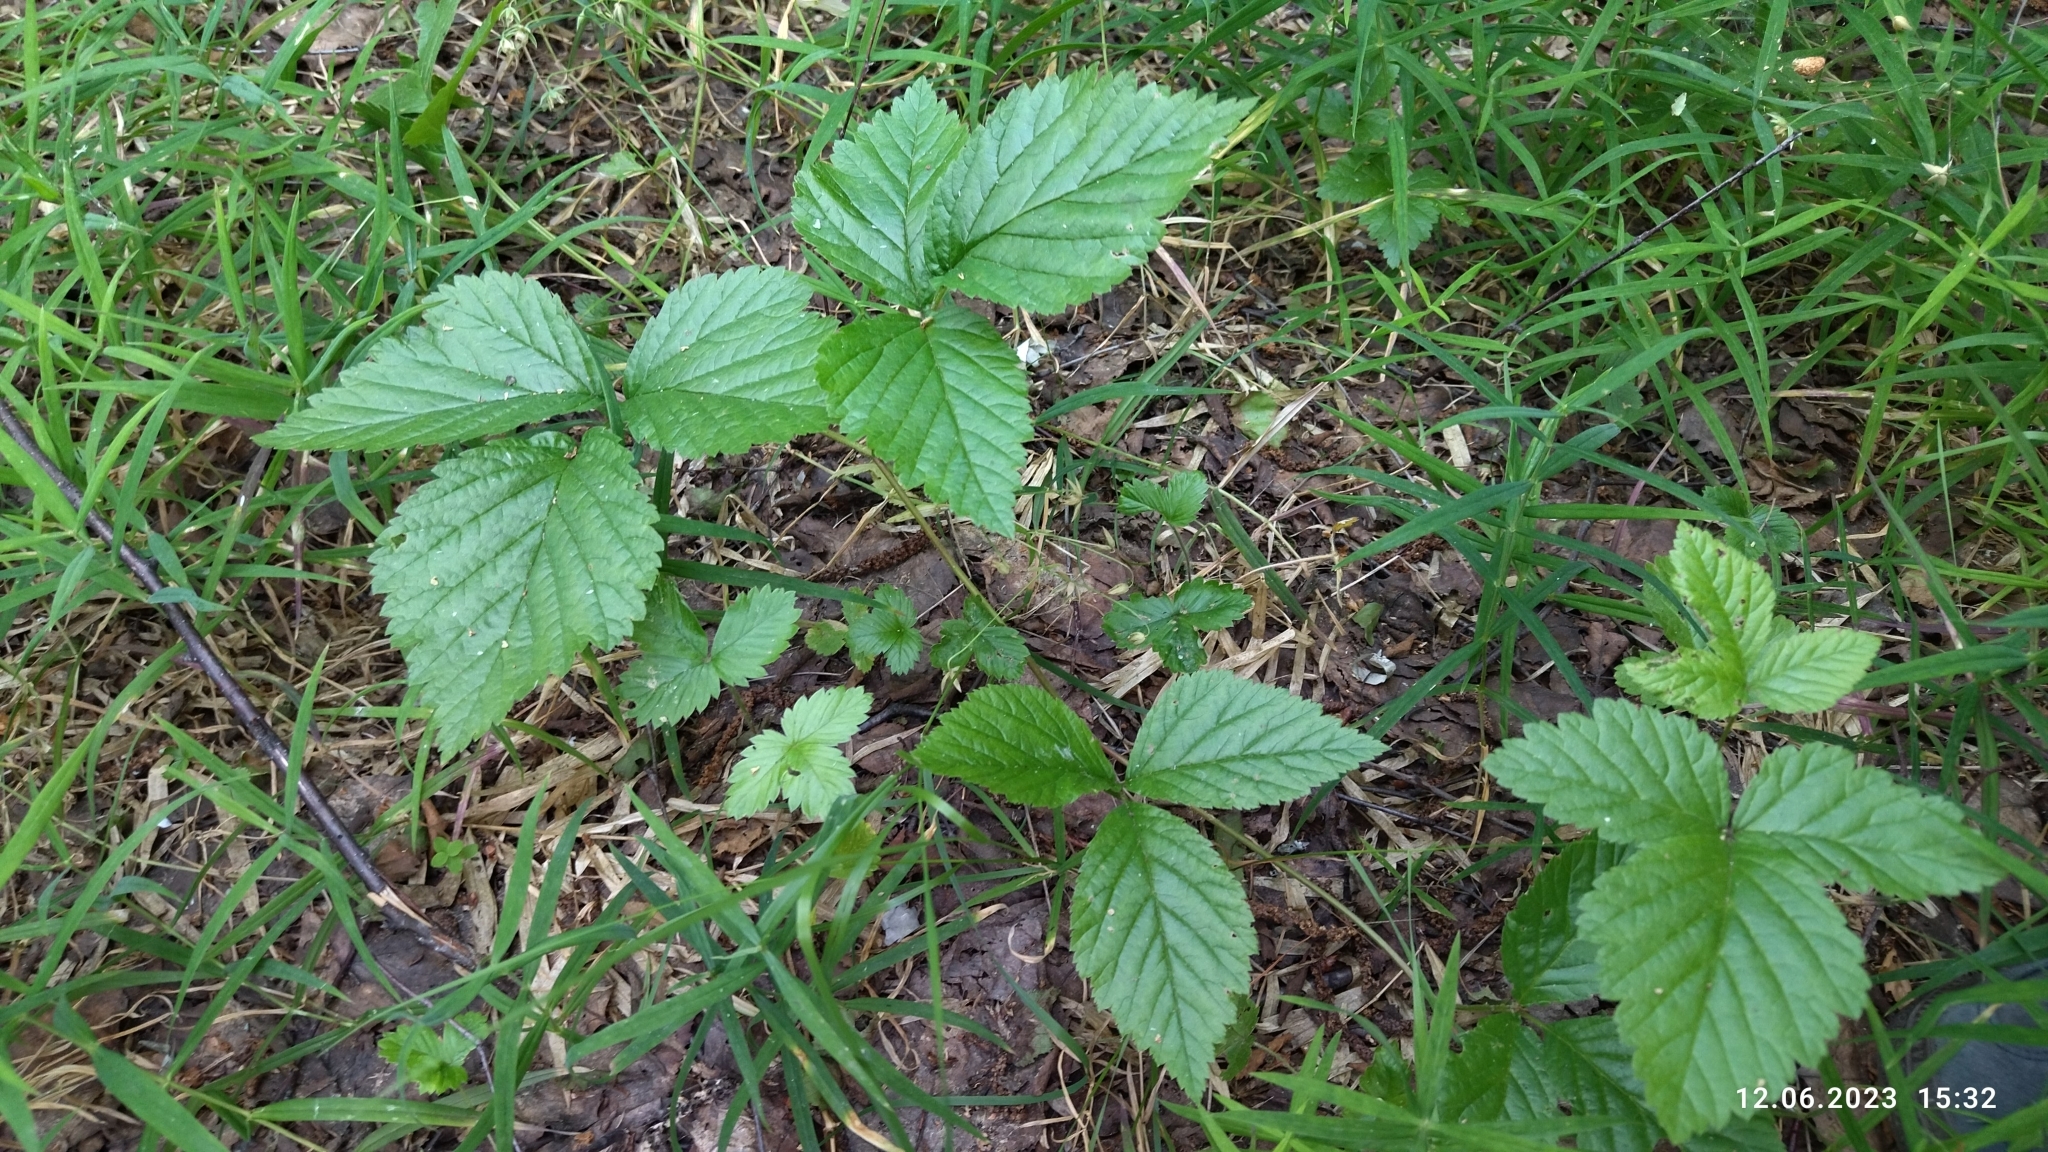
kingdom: Plantae
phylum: Tracheophyta
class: Magnoliopsida
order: Rosales
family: Rosaceae
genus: Rubus
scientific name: Rubus saxatilis
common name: Stone bramble
